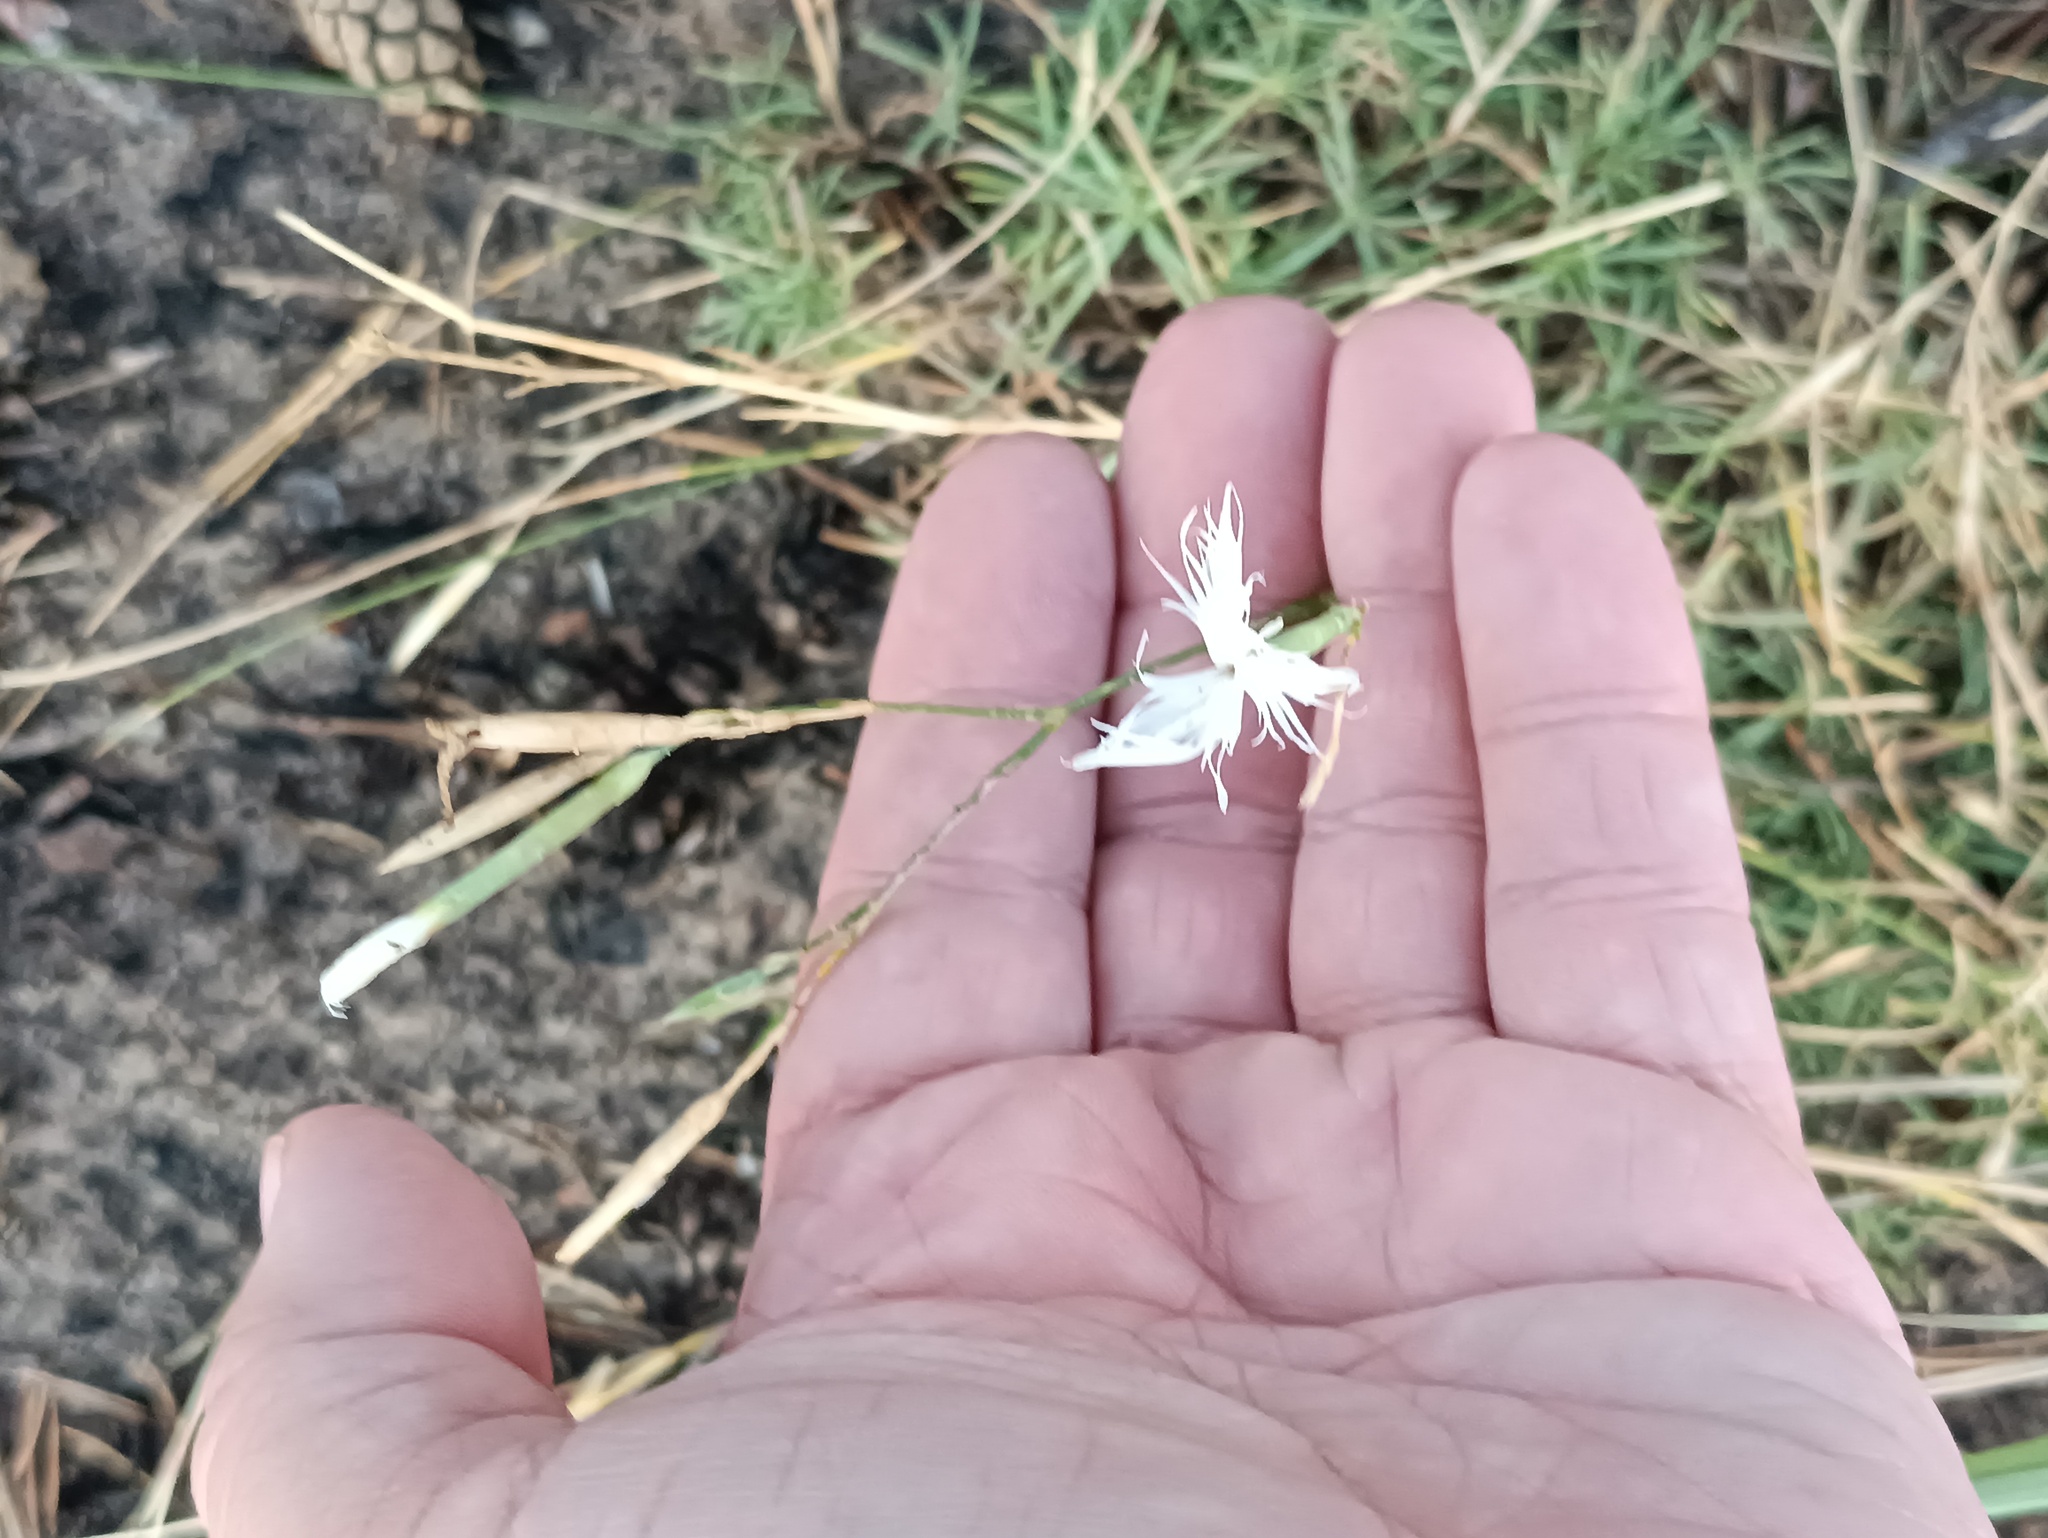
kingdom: Plantae
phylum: Tracheophyta
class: Magnoliopsida
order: Caryophyllales
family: Caryophyllaceae
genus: Dianthus
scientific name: Dianthus arenarius
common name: Stone pink
